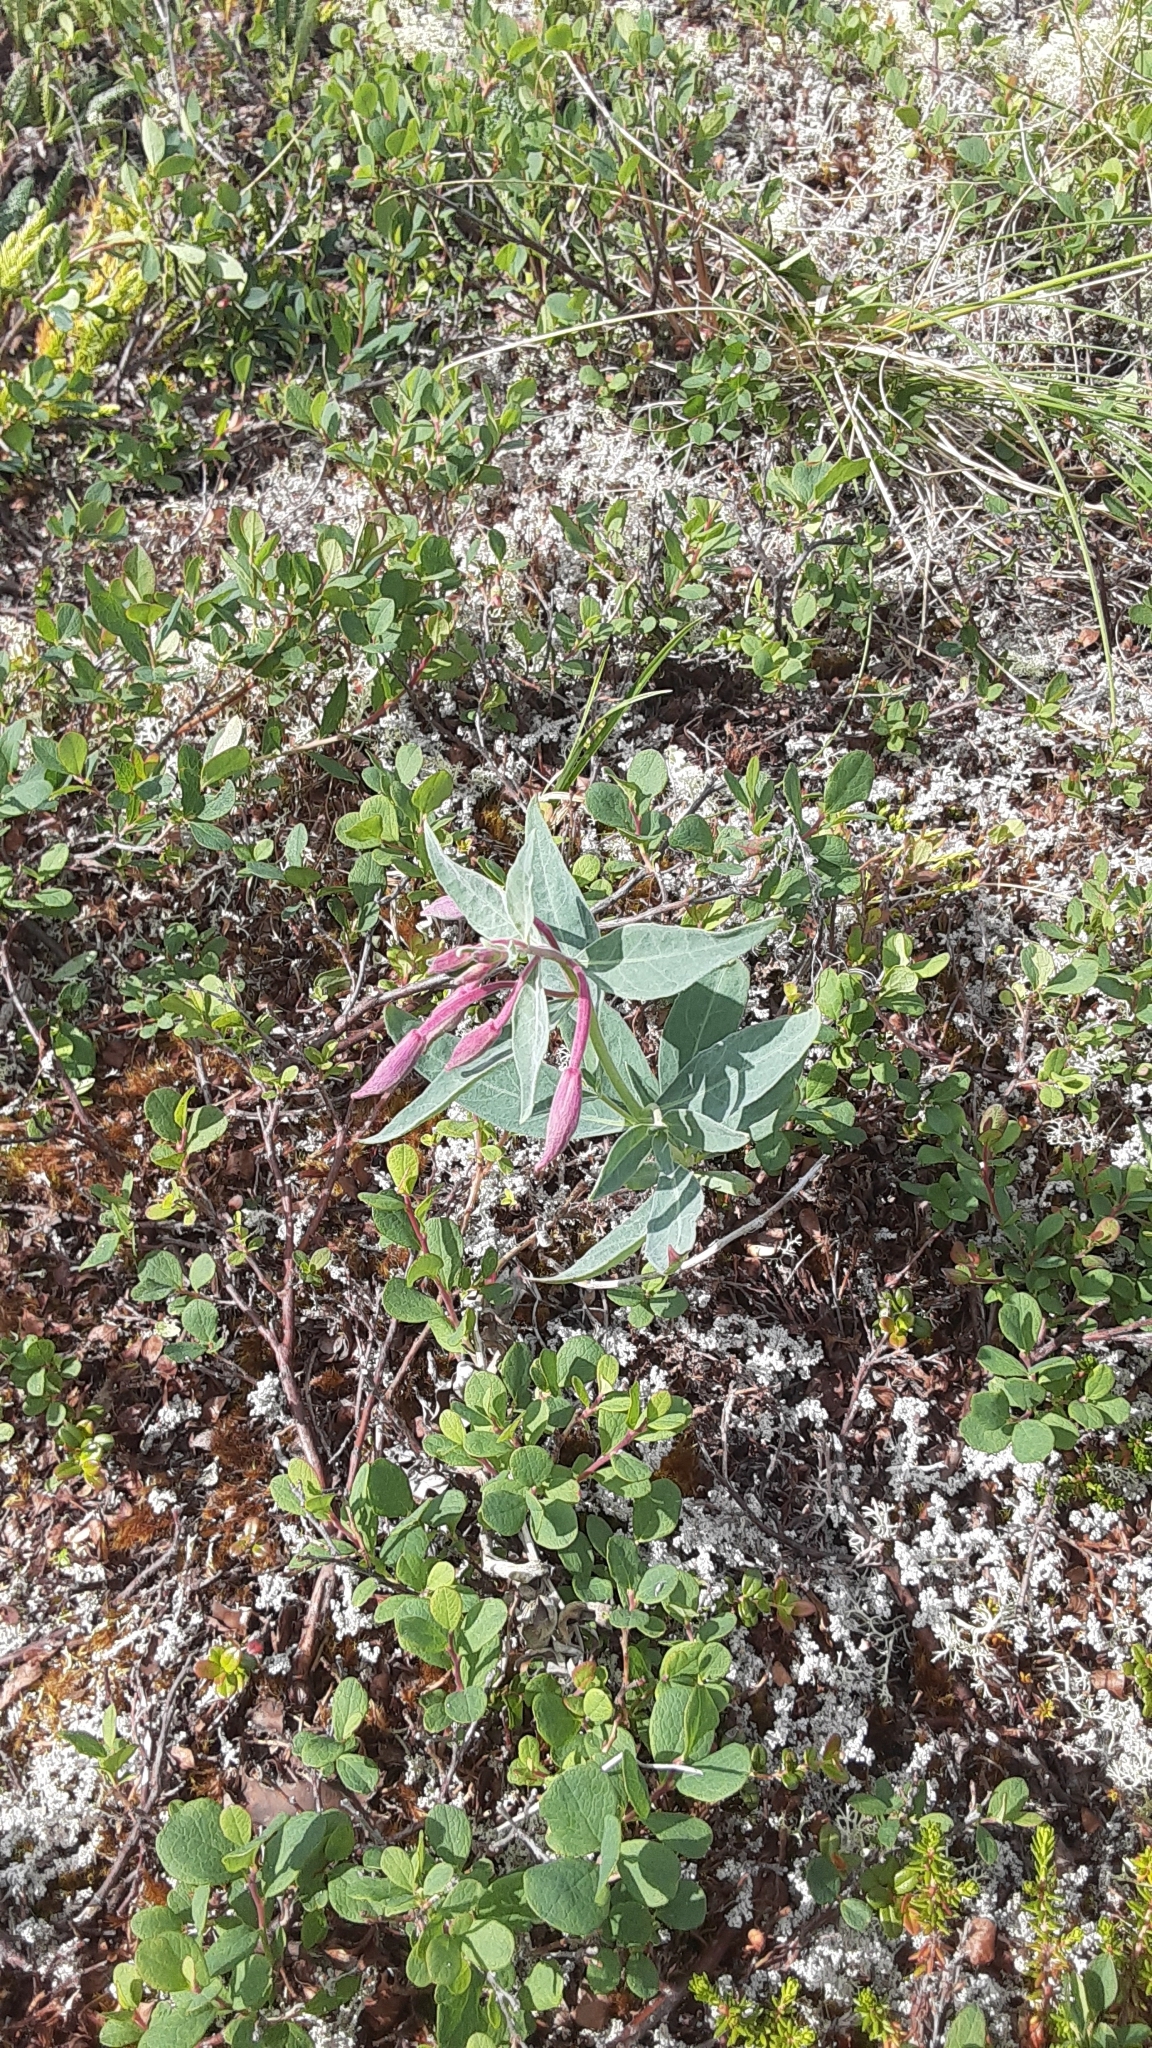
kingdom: Plantae
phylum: Tracheophyta
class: Magnoliopsida
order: Myrtales
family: Onagraceae
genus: Chamaenerion
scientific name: Chamaenerion latifolium
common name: Dwarf fireweed
